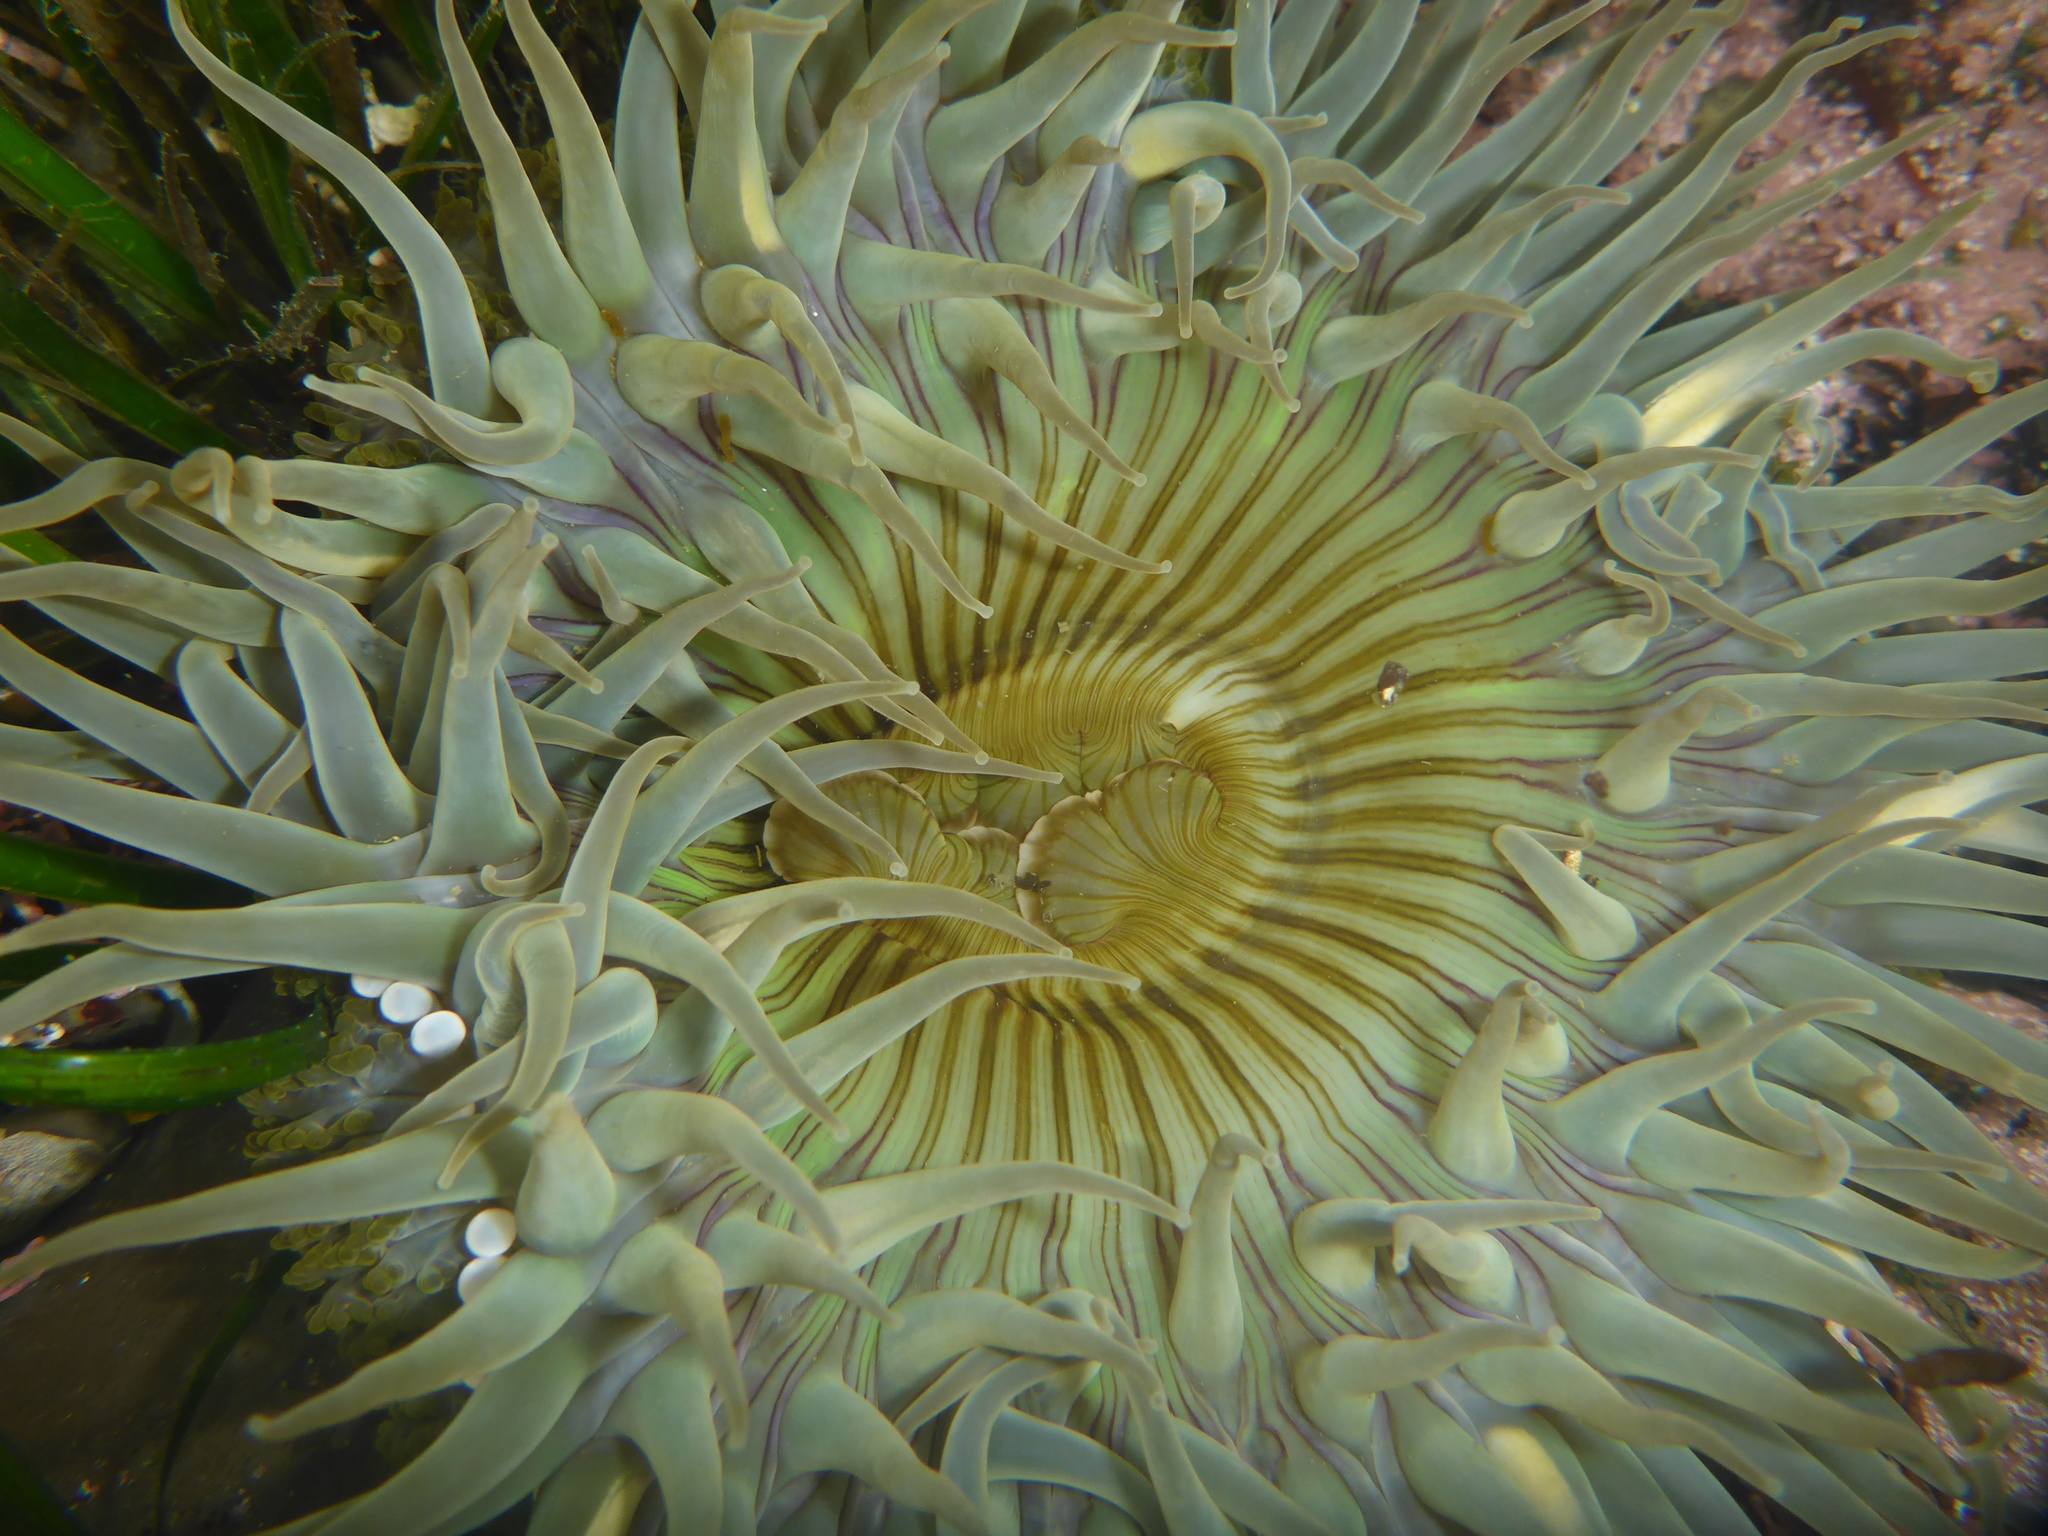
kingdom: Animalia
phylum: Cnidaria
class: Anthozoa
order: Actiniaria
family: Actiniidae
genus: Anthopleura
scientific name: Anthopleura sola
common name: Sun anemone
